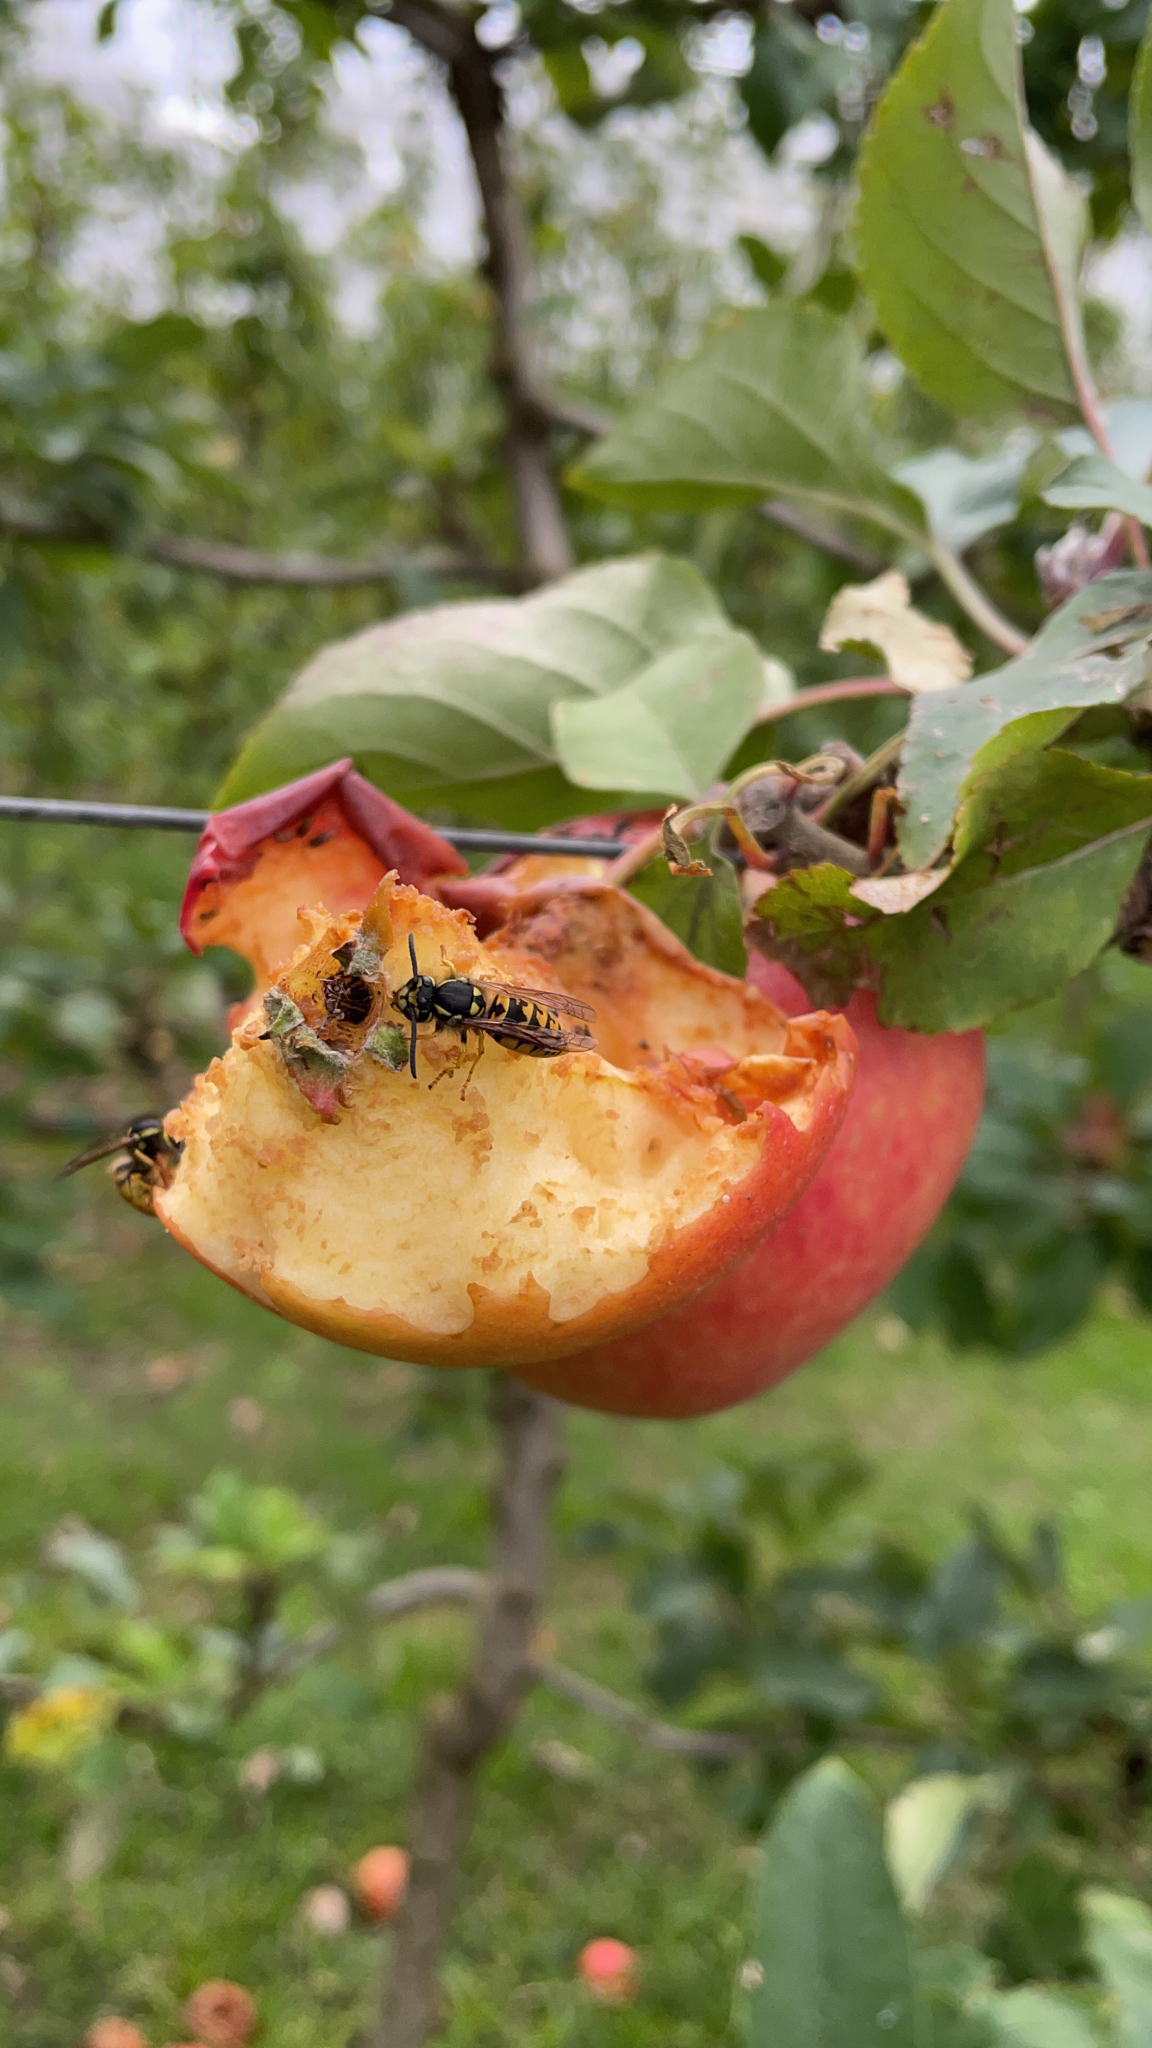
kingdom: Animalia
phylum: Arthropoda
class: Insecta
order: Hymenoptera
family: Vespidae
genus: Vespula
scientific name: Vespula germanica
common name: German wasp
